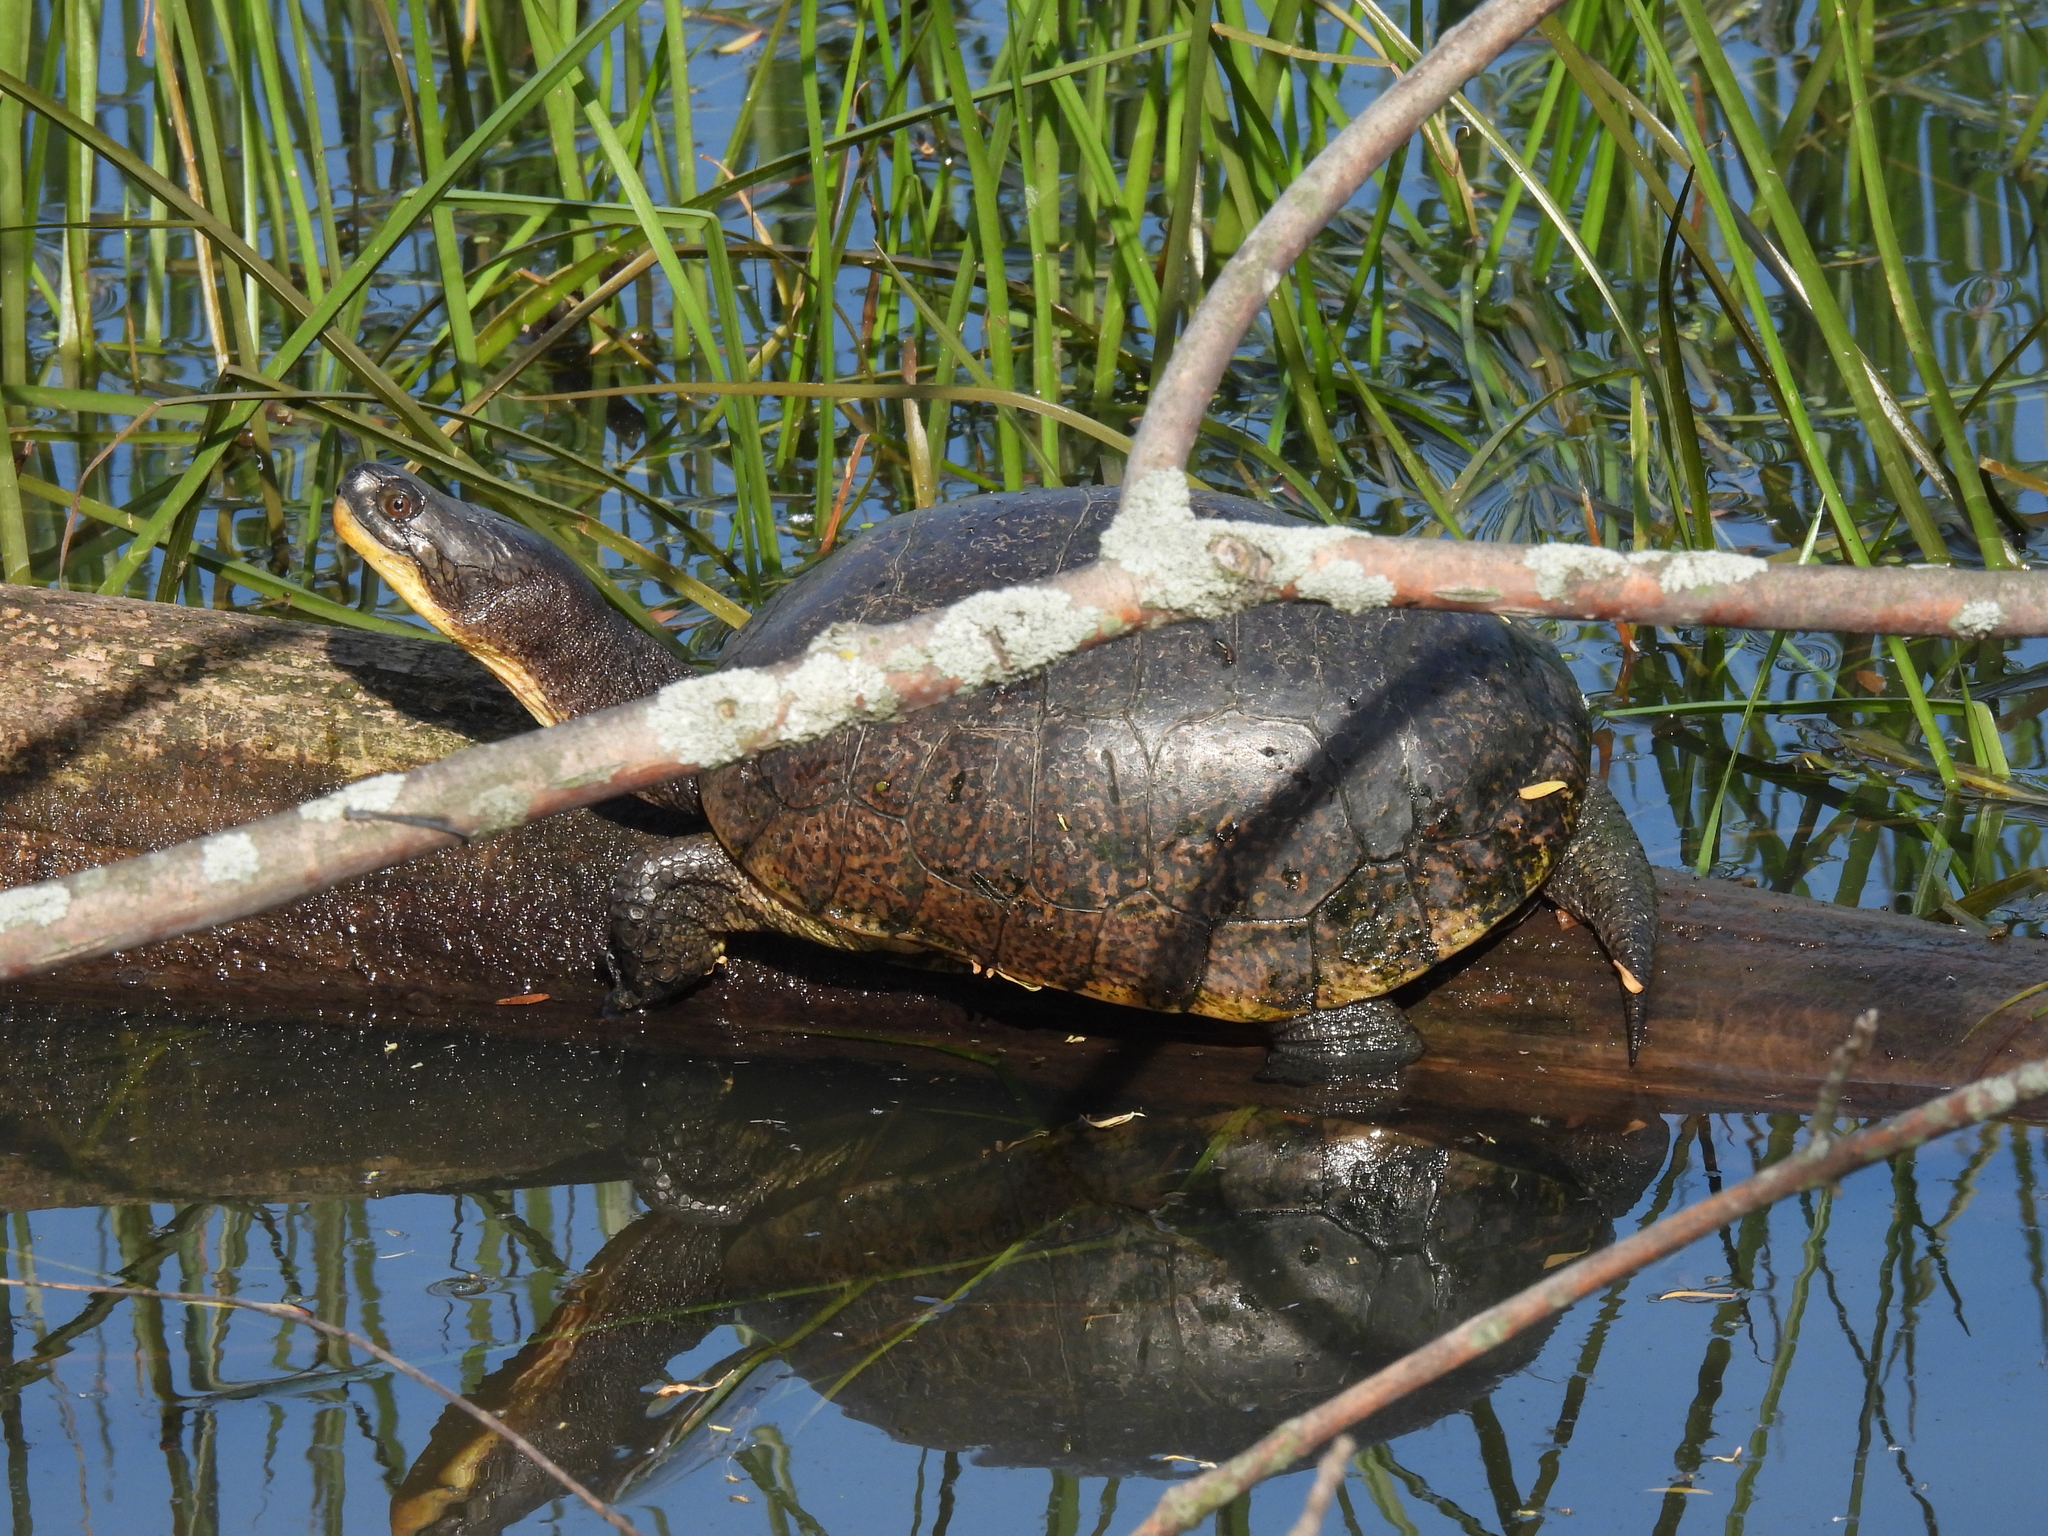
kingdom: Animalia
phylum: Chordata
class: Testudines
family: Emydidae
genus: Emys
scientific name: Emys blandingii
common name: Blanding's turtle
